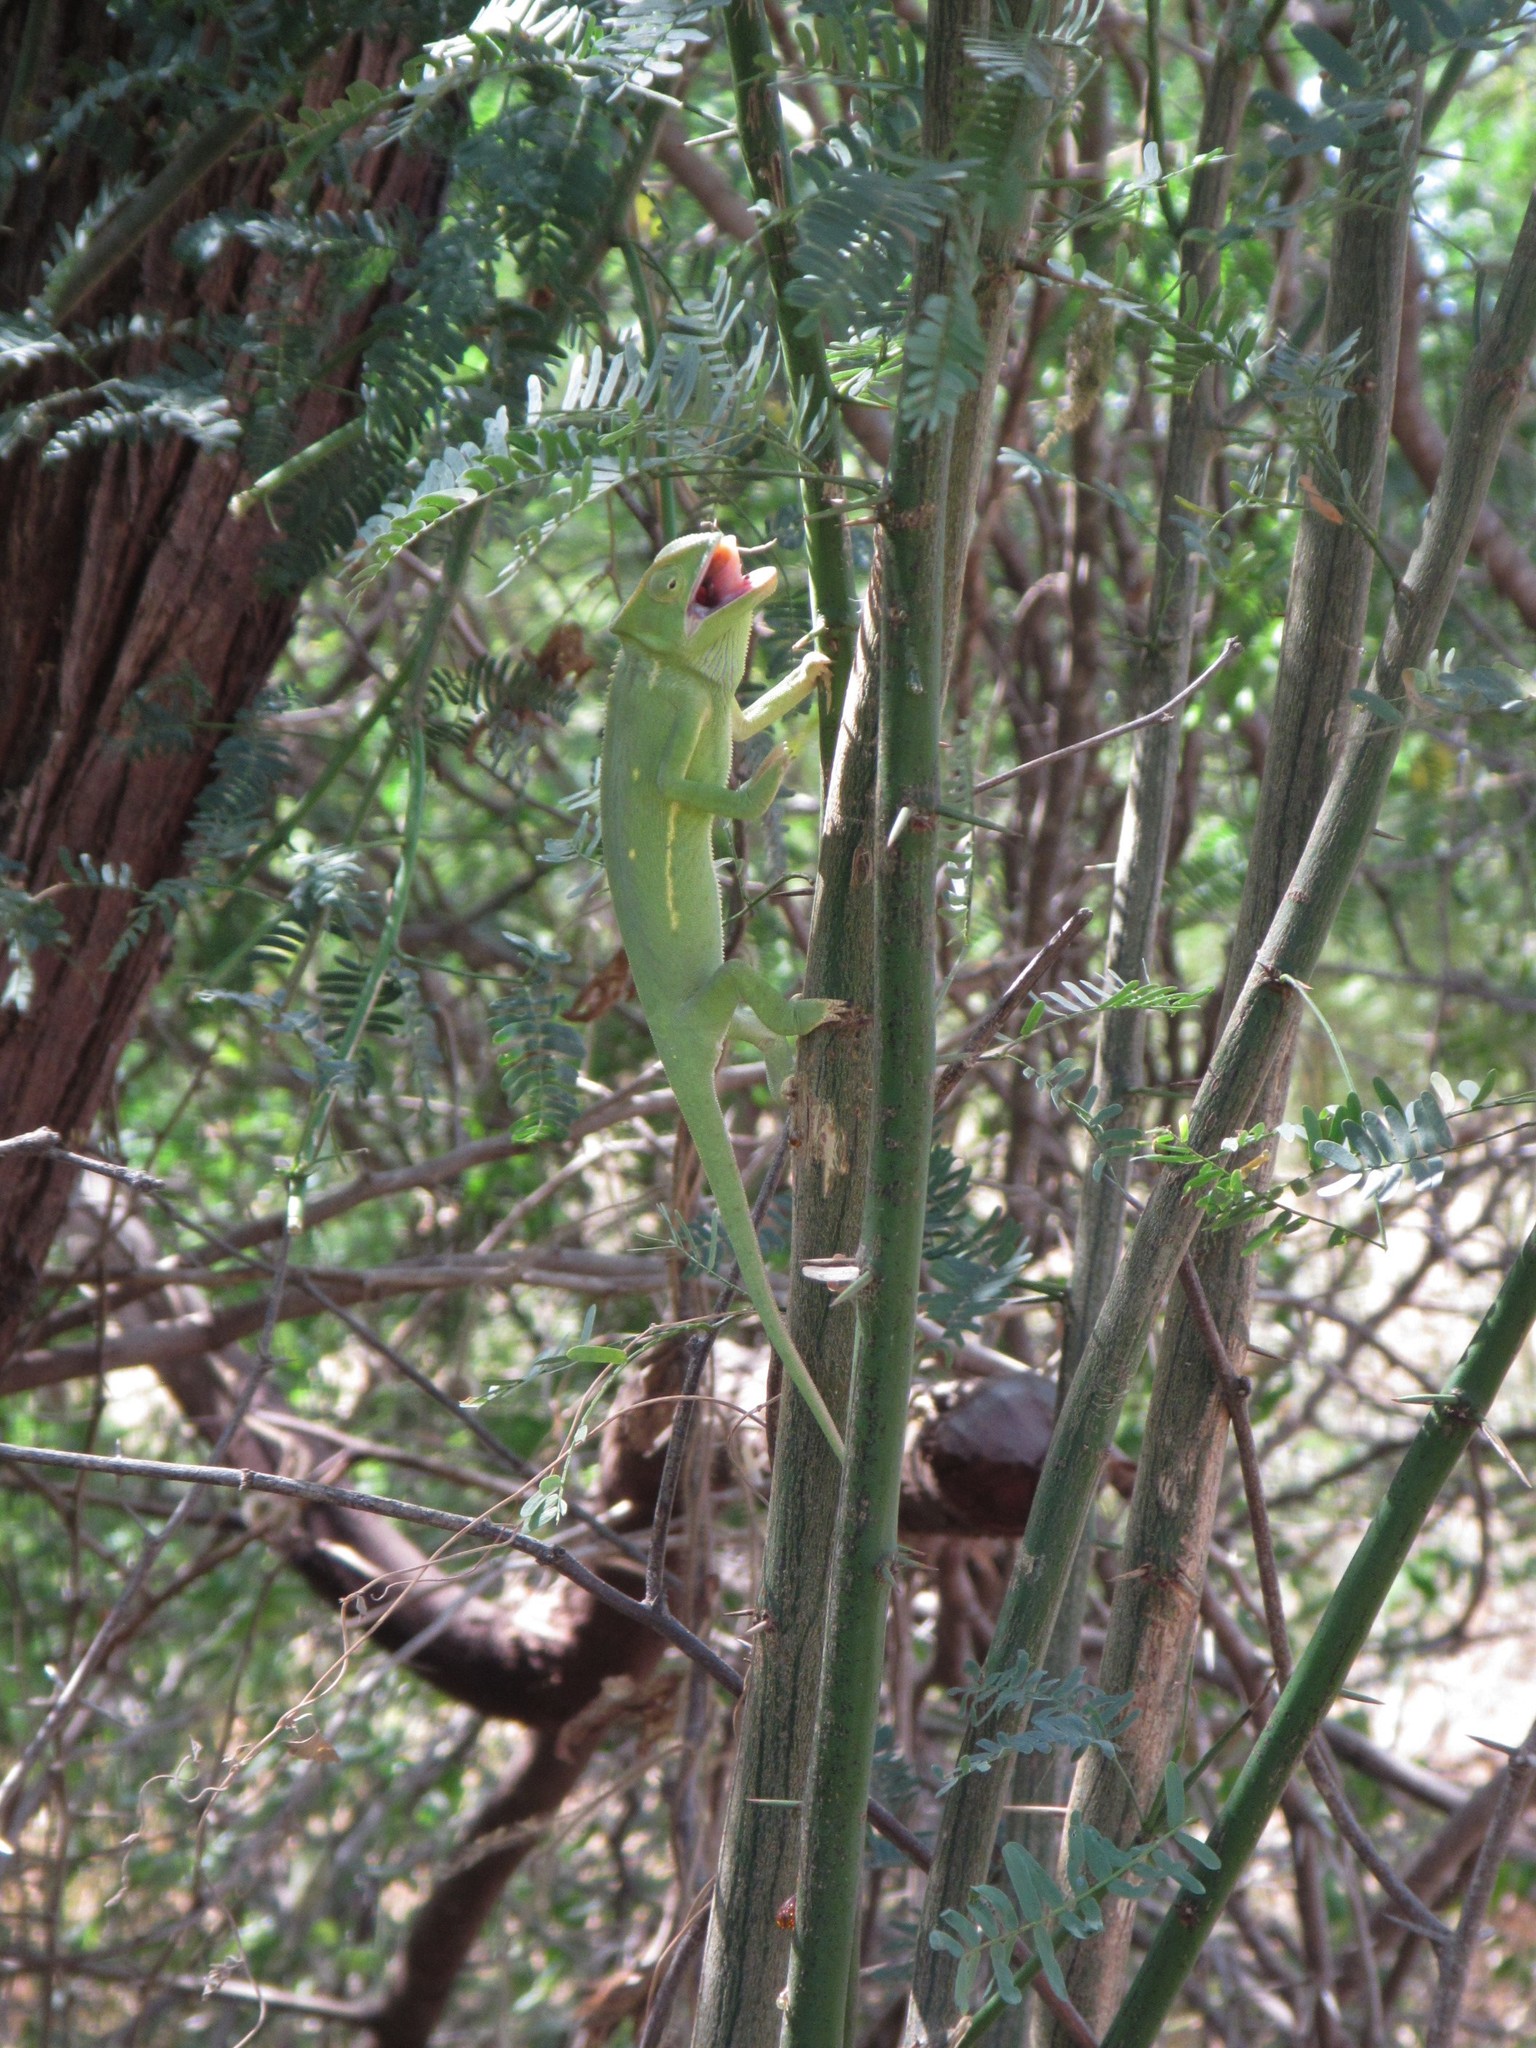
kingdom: Animalia
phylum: Chordata
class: Squamata
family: Chamaeleonidae
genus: Chamaeleo
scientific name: Chamaeleo senegalensis
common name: Senegal chameleon
